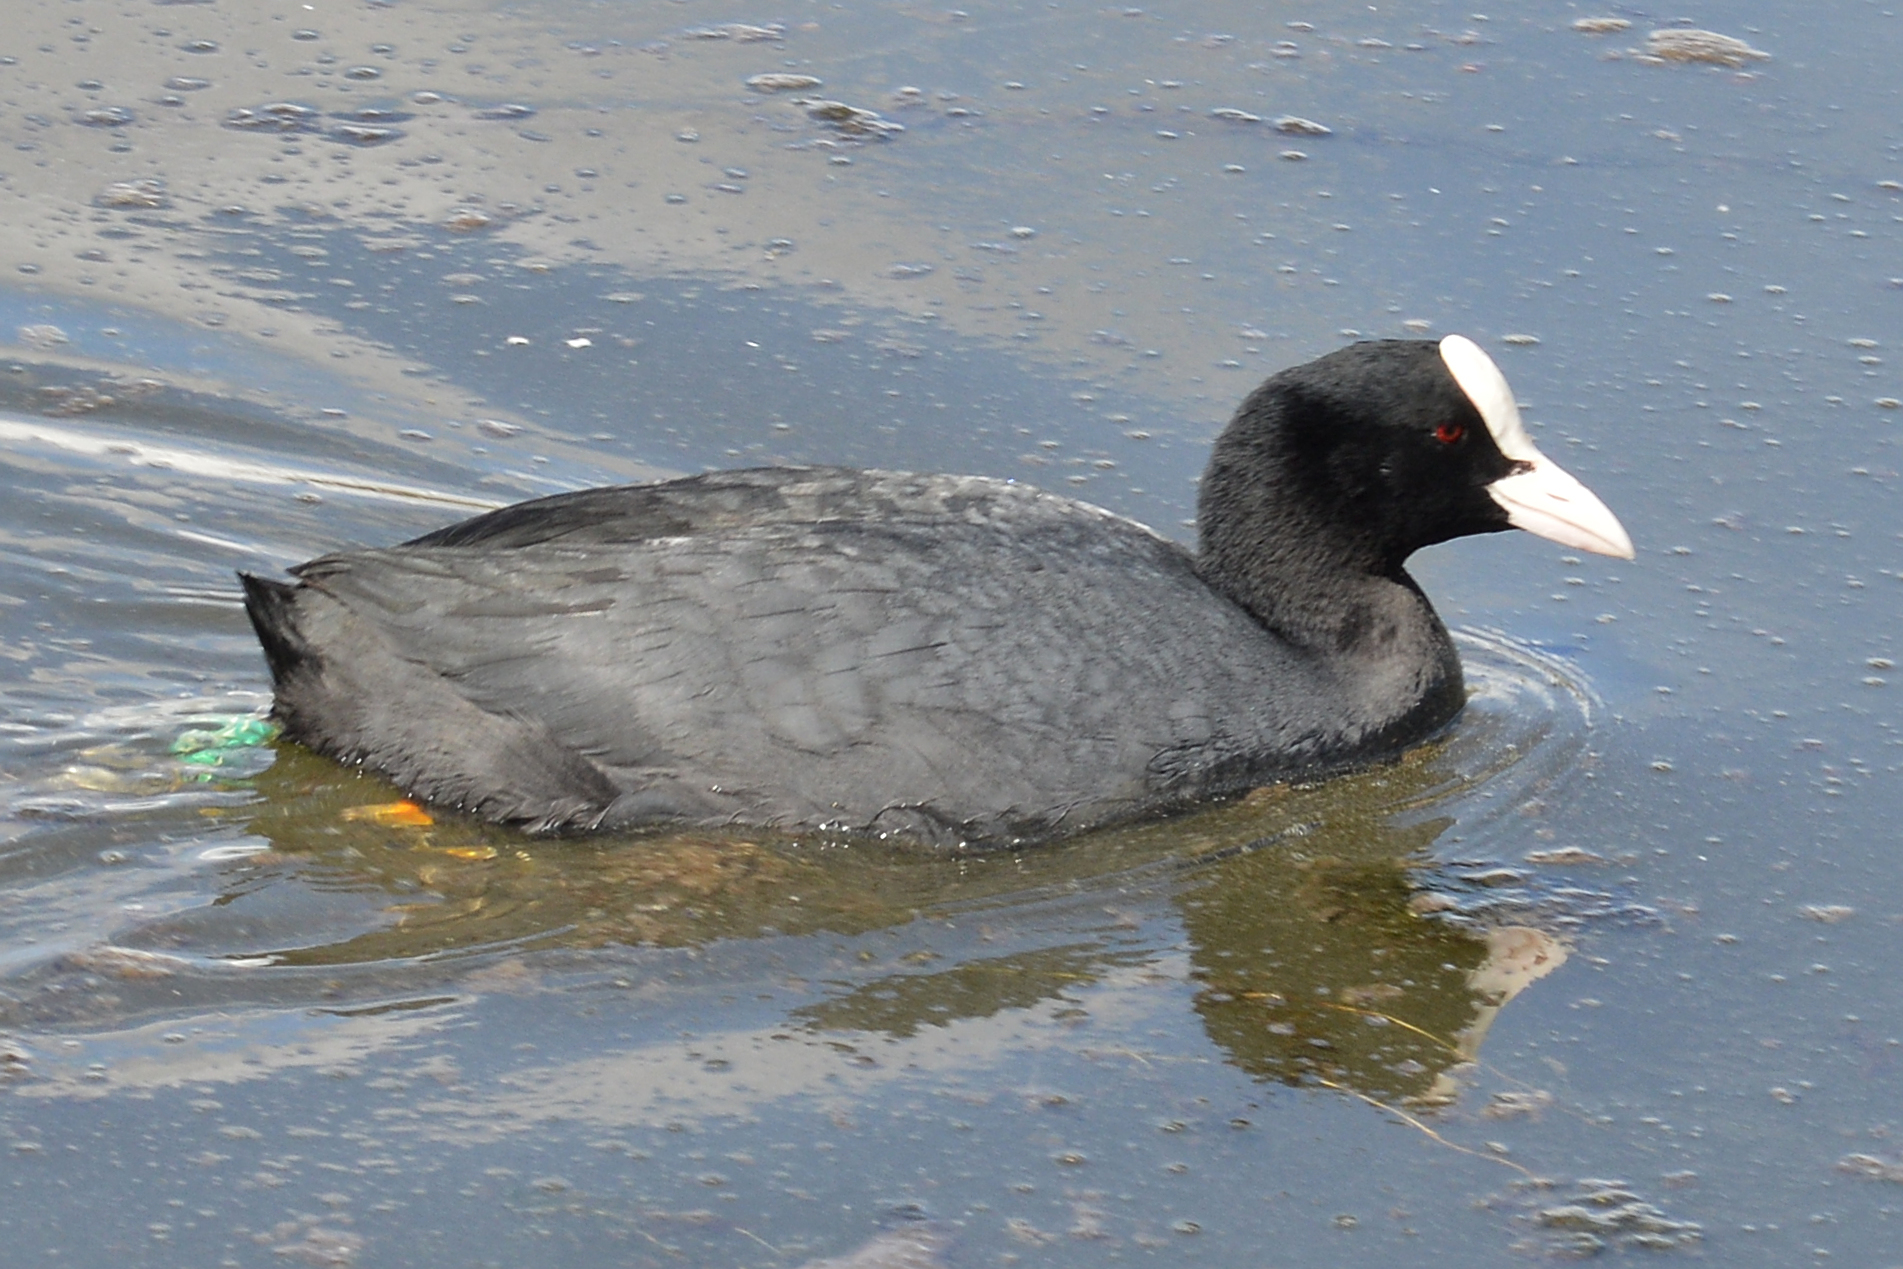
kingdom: Animalia
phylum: Chordata
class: Aves
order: Gruiformes
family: Rallidae
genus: Fulica
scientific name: Fulica atra
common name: Eurasian coot
